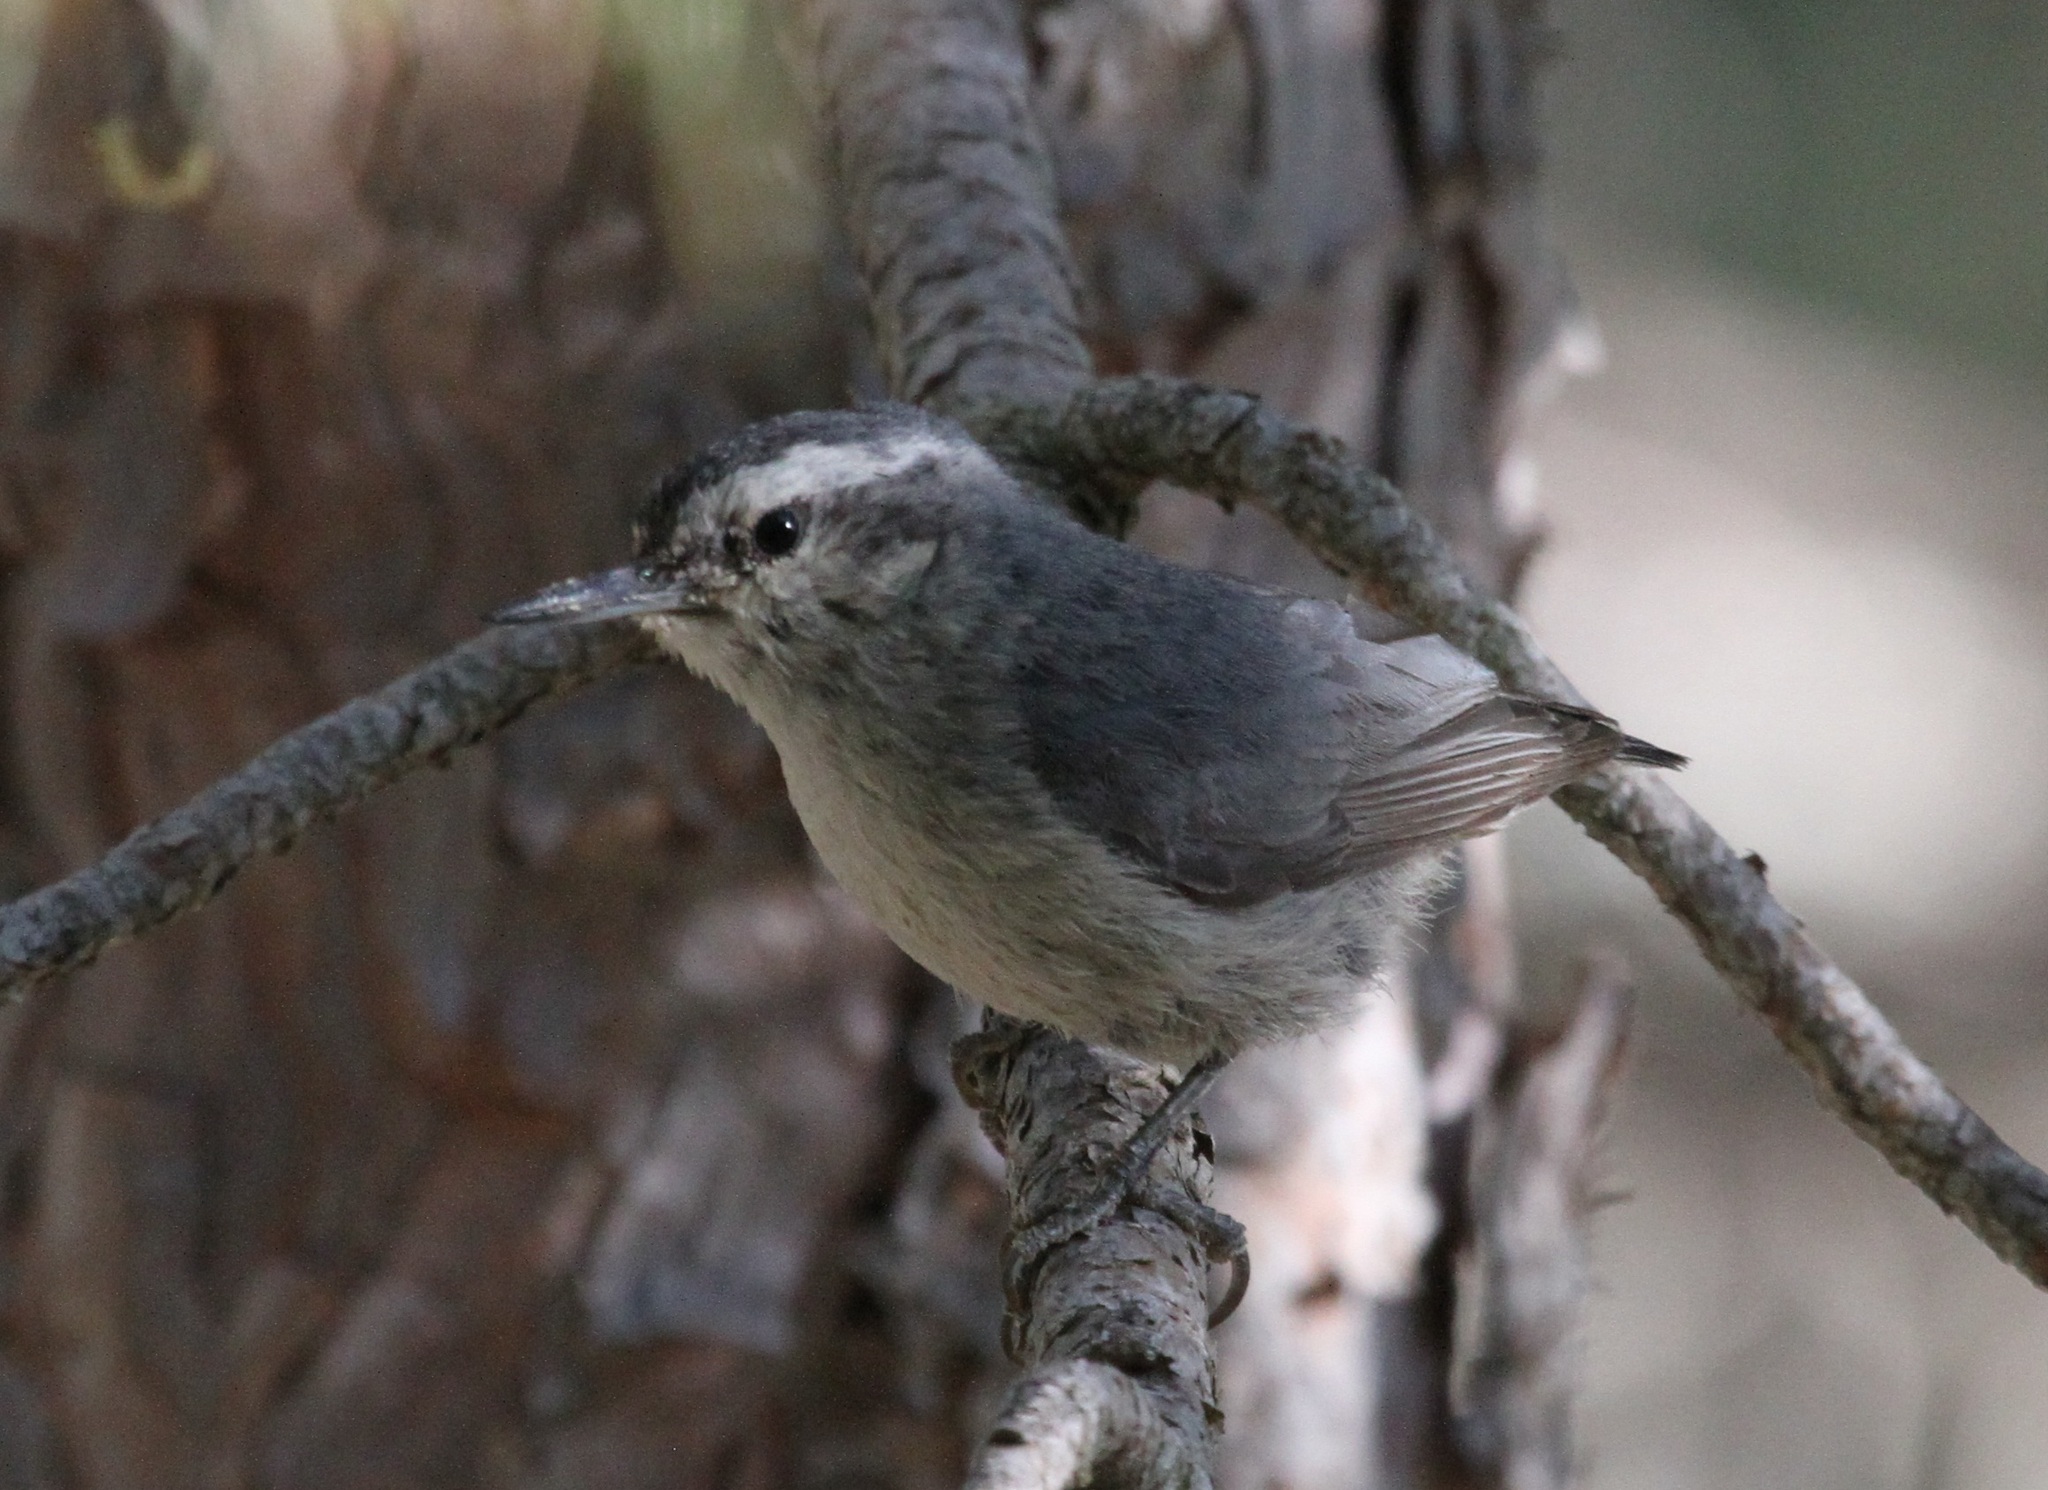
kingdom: Animalia
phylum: Chordata
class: Aves
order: Passeriformes
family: Sittidae
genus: Sitta
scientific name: Sitta whiteheadi
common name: Corsican nuthatch
